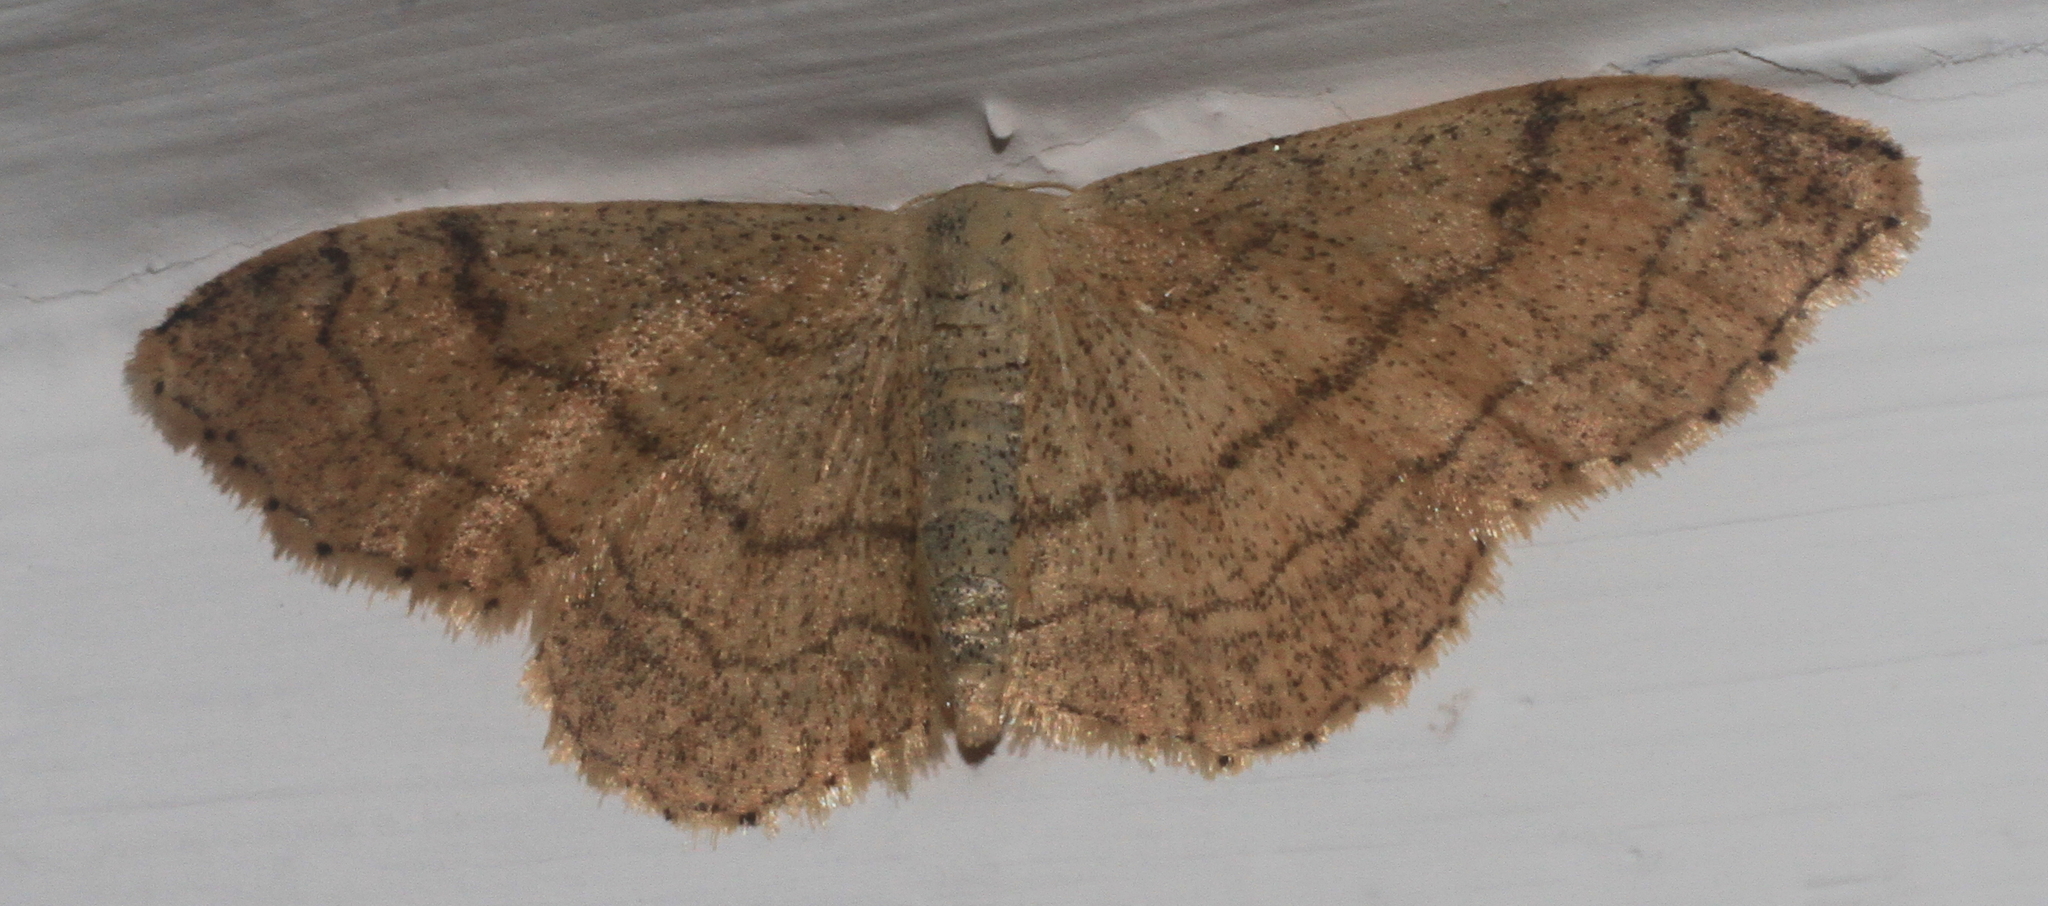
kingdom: Animalia
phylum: Arthropoda
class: Insecta
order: Lepidoptera
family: Geometridae
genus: Idaea
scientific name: Idaea aversata
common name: Riband wave
